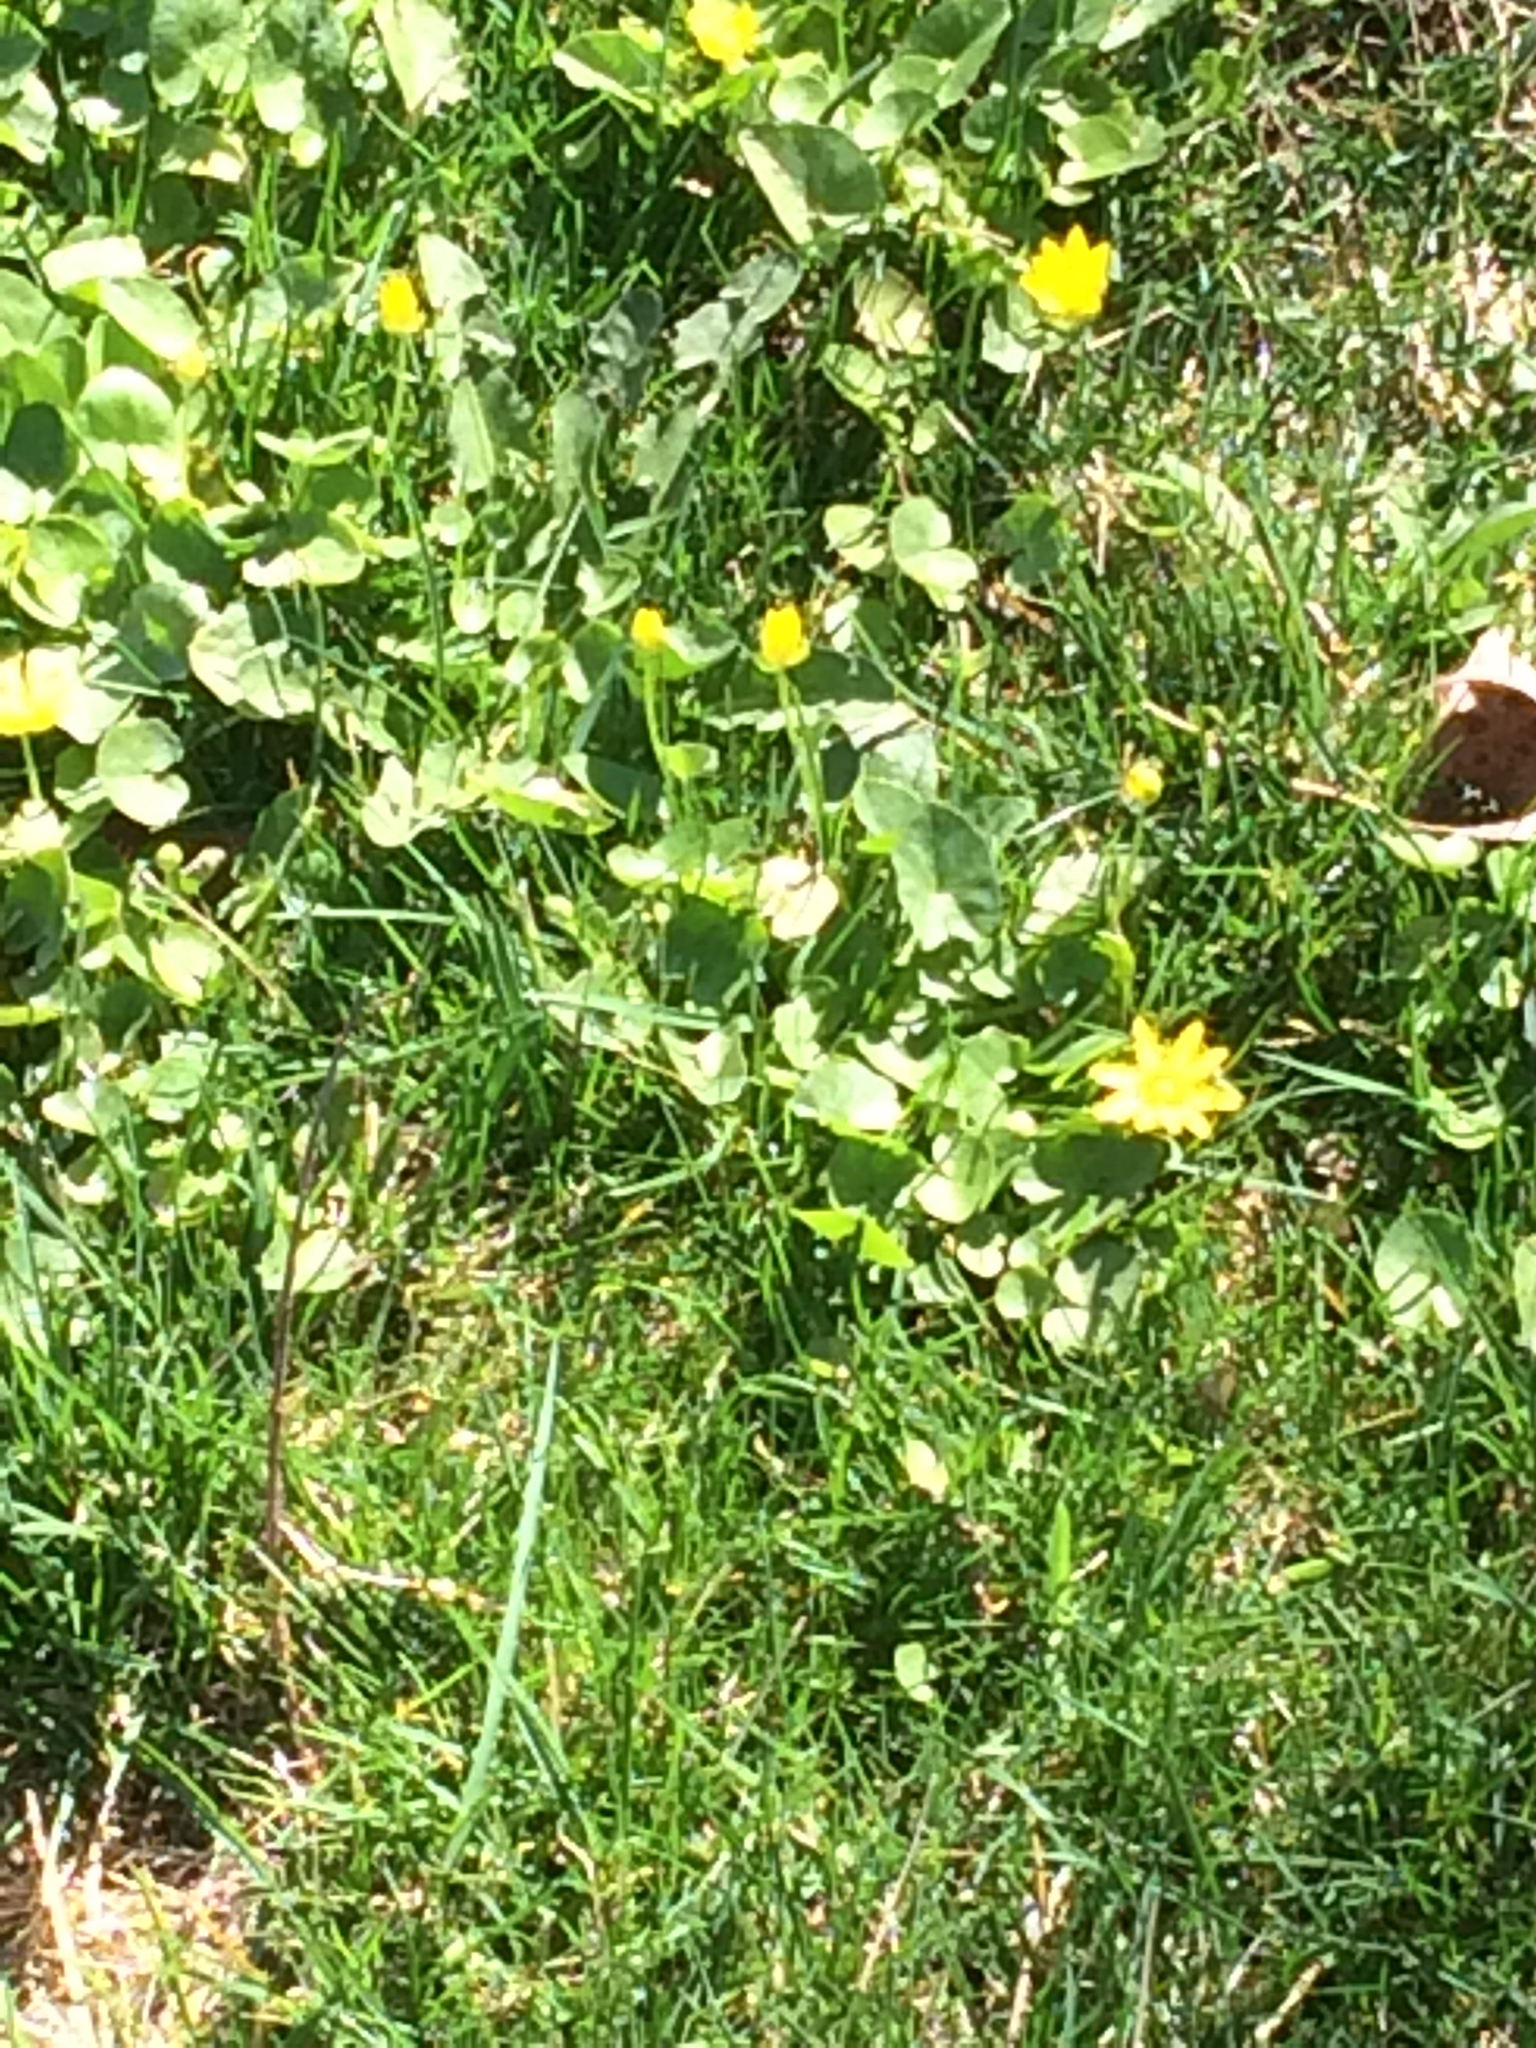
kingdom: Plantae
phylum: Tracheophyta
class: Magnoliopsida
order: Ranunculales
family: Ranunculaceae
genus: Ficaria
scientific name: Ficaria verna
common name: Lesser celandine
